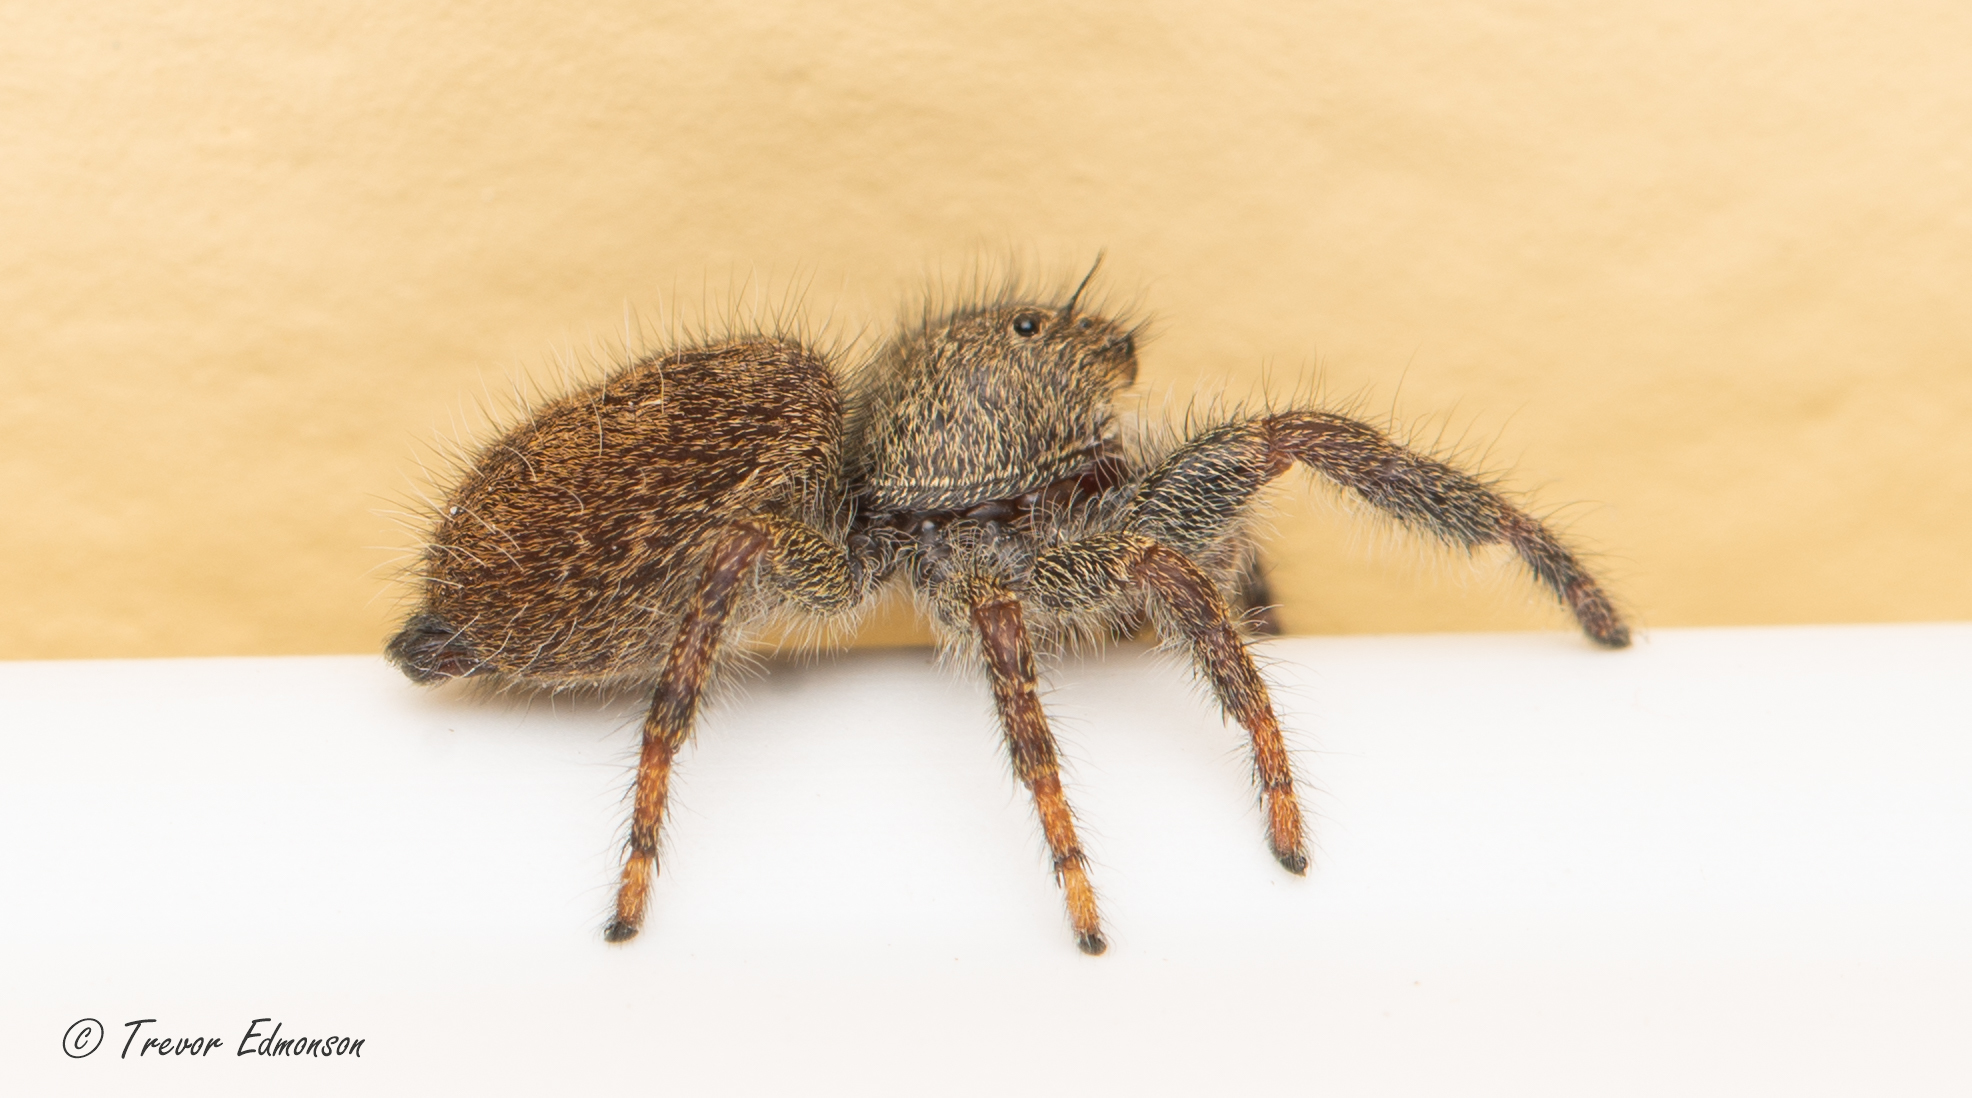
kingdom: Animalia
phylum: Arthropoda
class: Arachnida
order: Araneae
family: Salticidae
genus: Phidippus
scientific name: Phidippus princeps
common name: Grayish jumping spider
